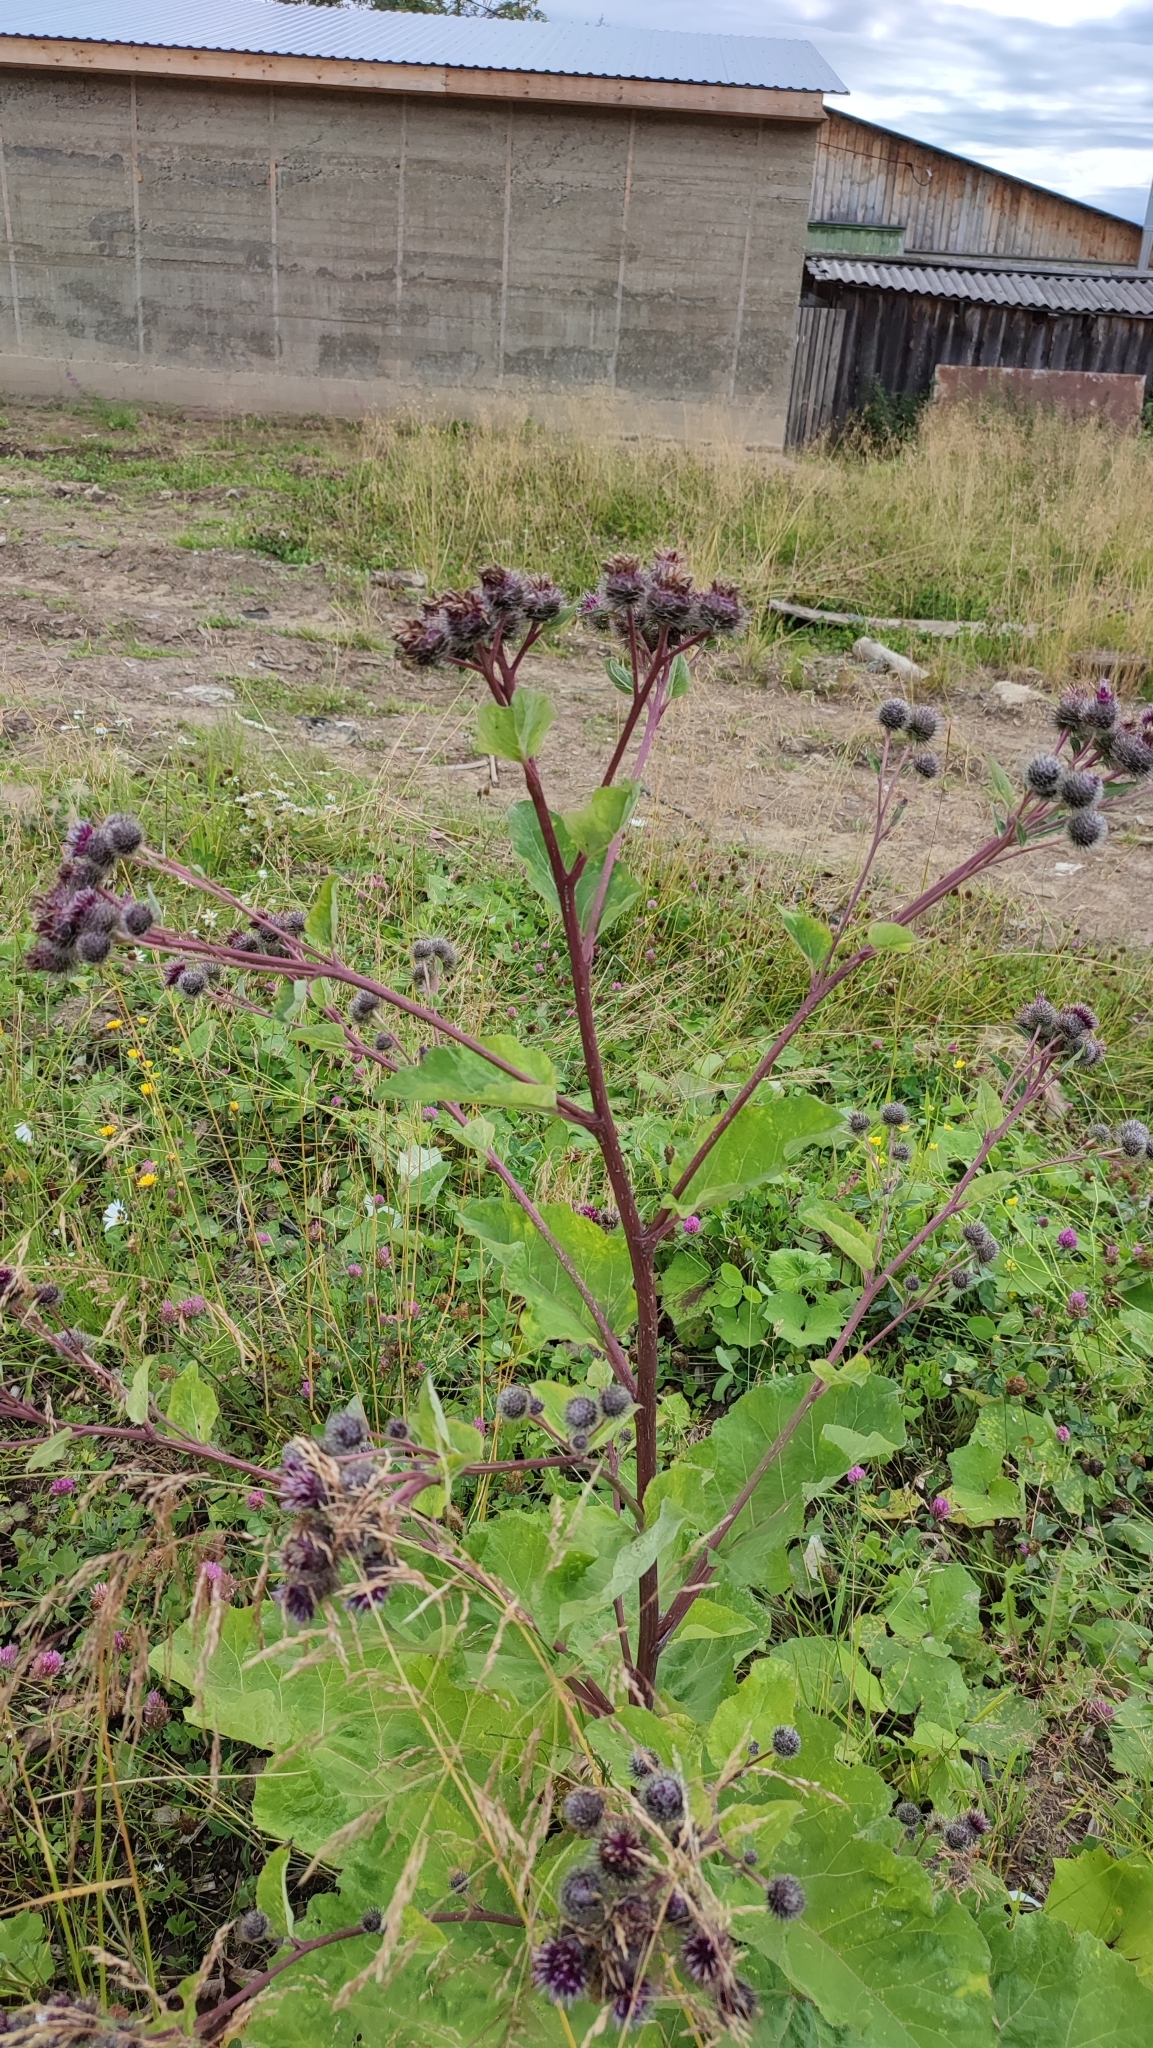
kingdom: Plantae
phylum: Tracheophyta
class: Magnoliopsida
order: Asterales
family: Asteraceae
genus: Arctium
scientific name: Arctium tomentosum
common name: Woolly burdock
